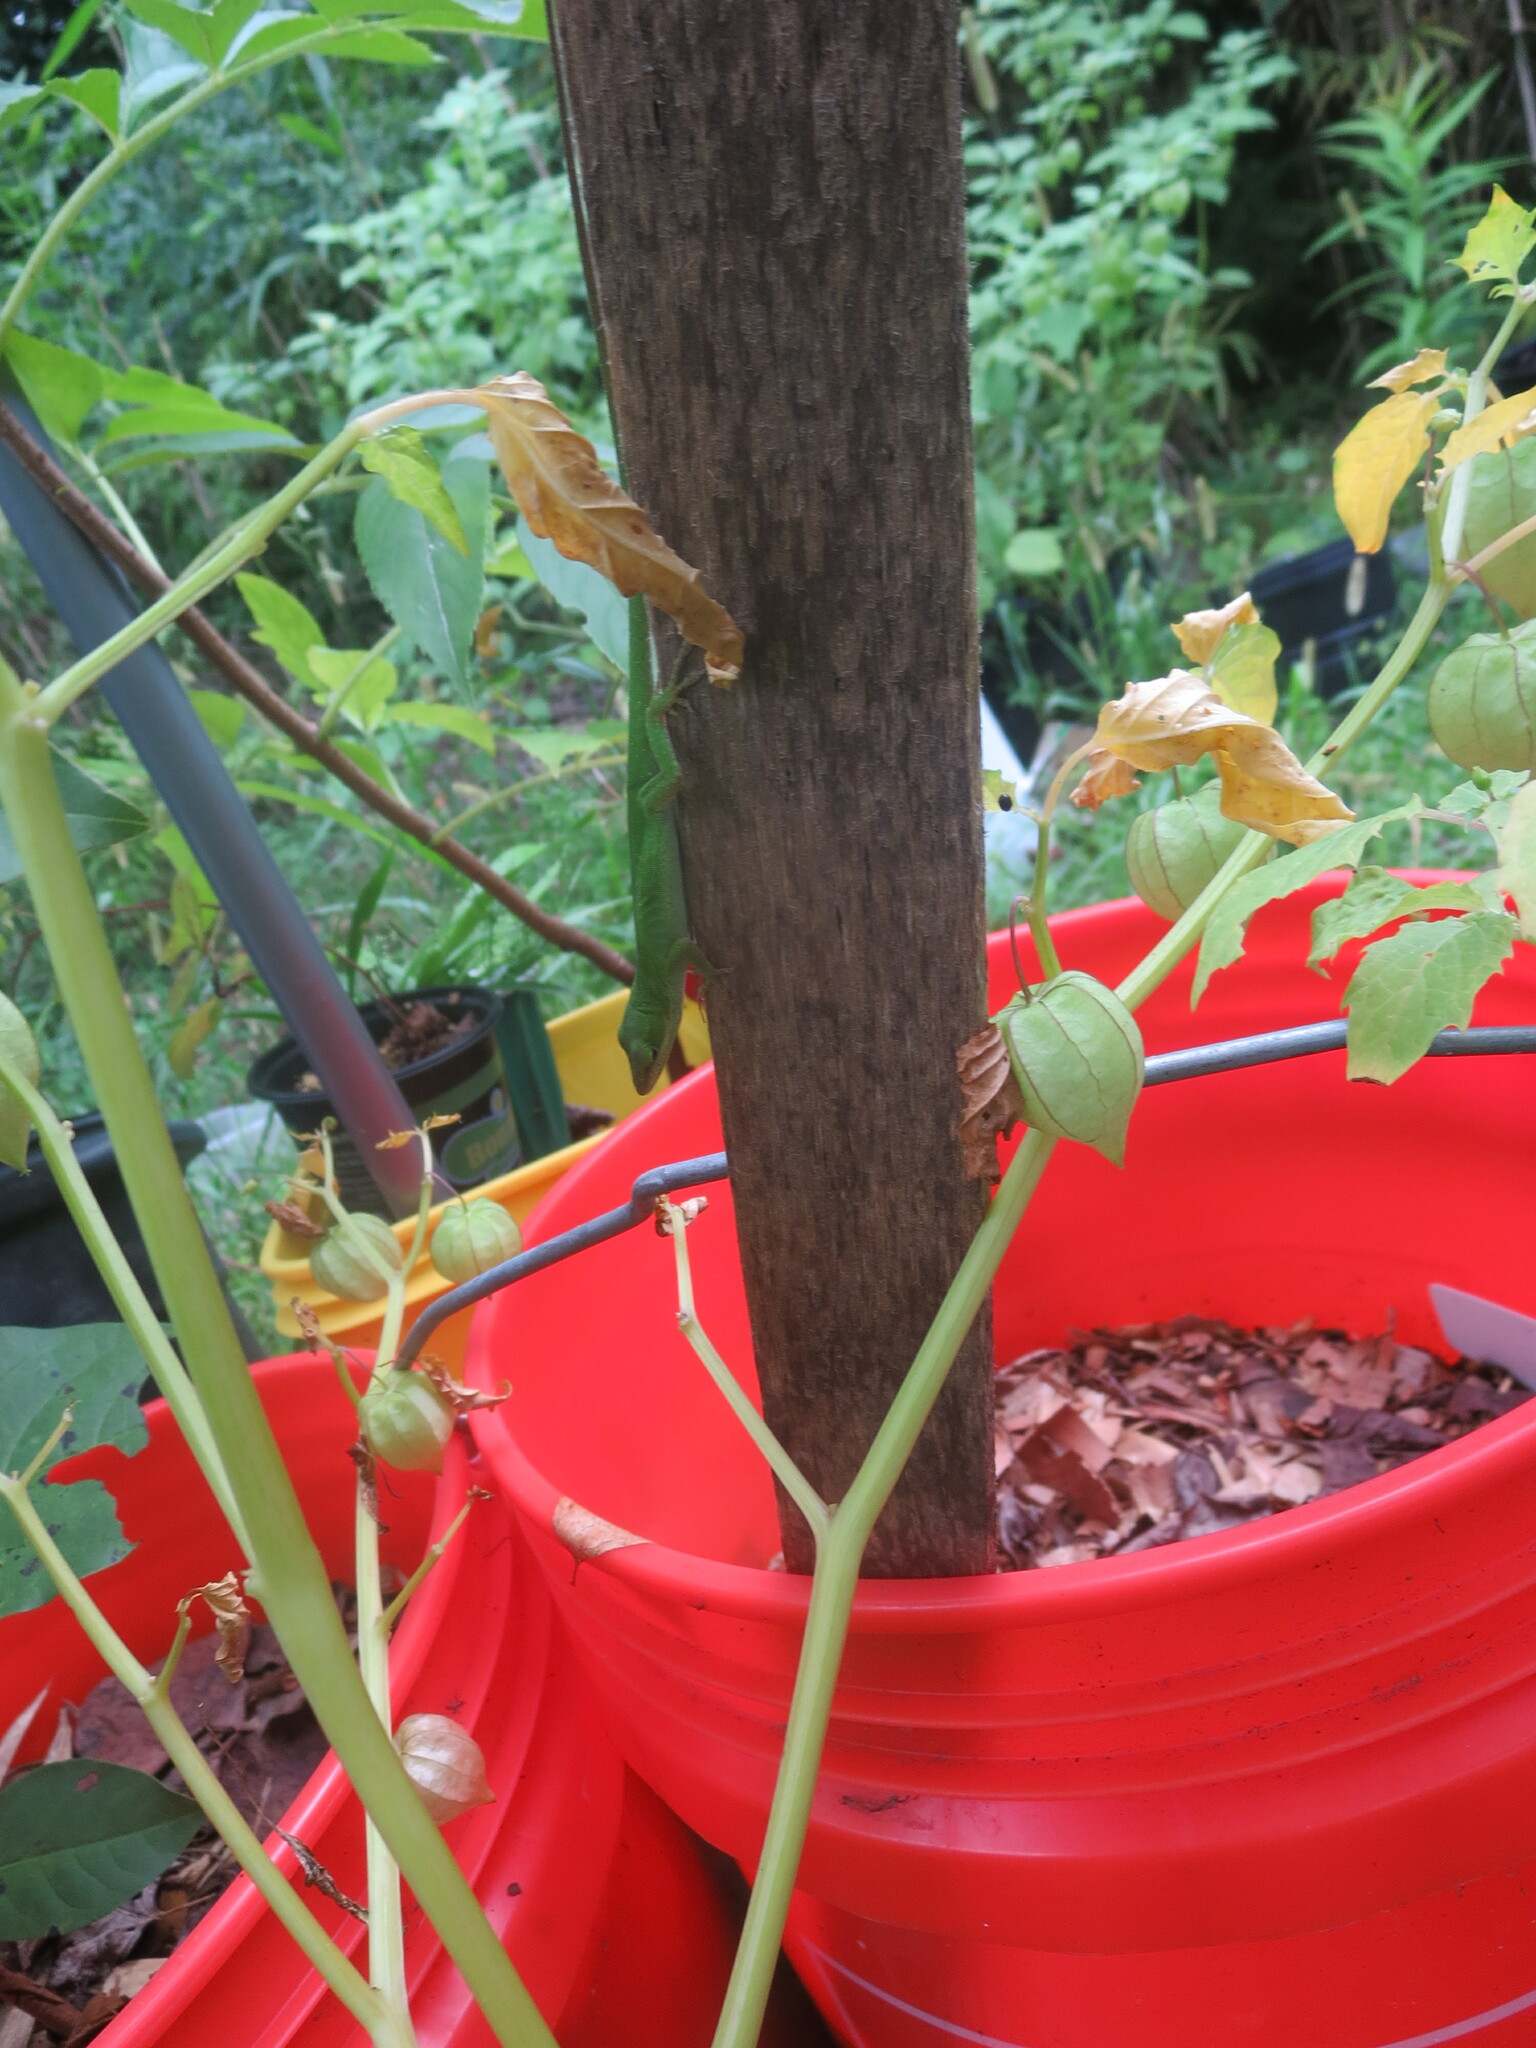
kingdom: Animalia
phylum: Chordata
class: Squamata
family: Dactyloidae
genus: Anolis
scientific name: Anolis carolinensis
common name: Green anole
